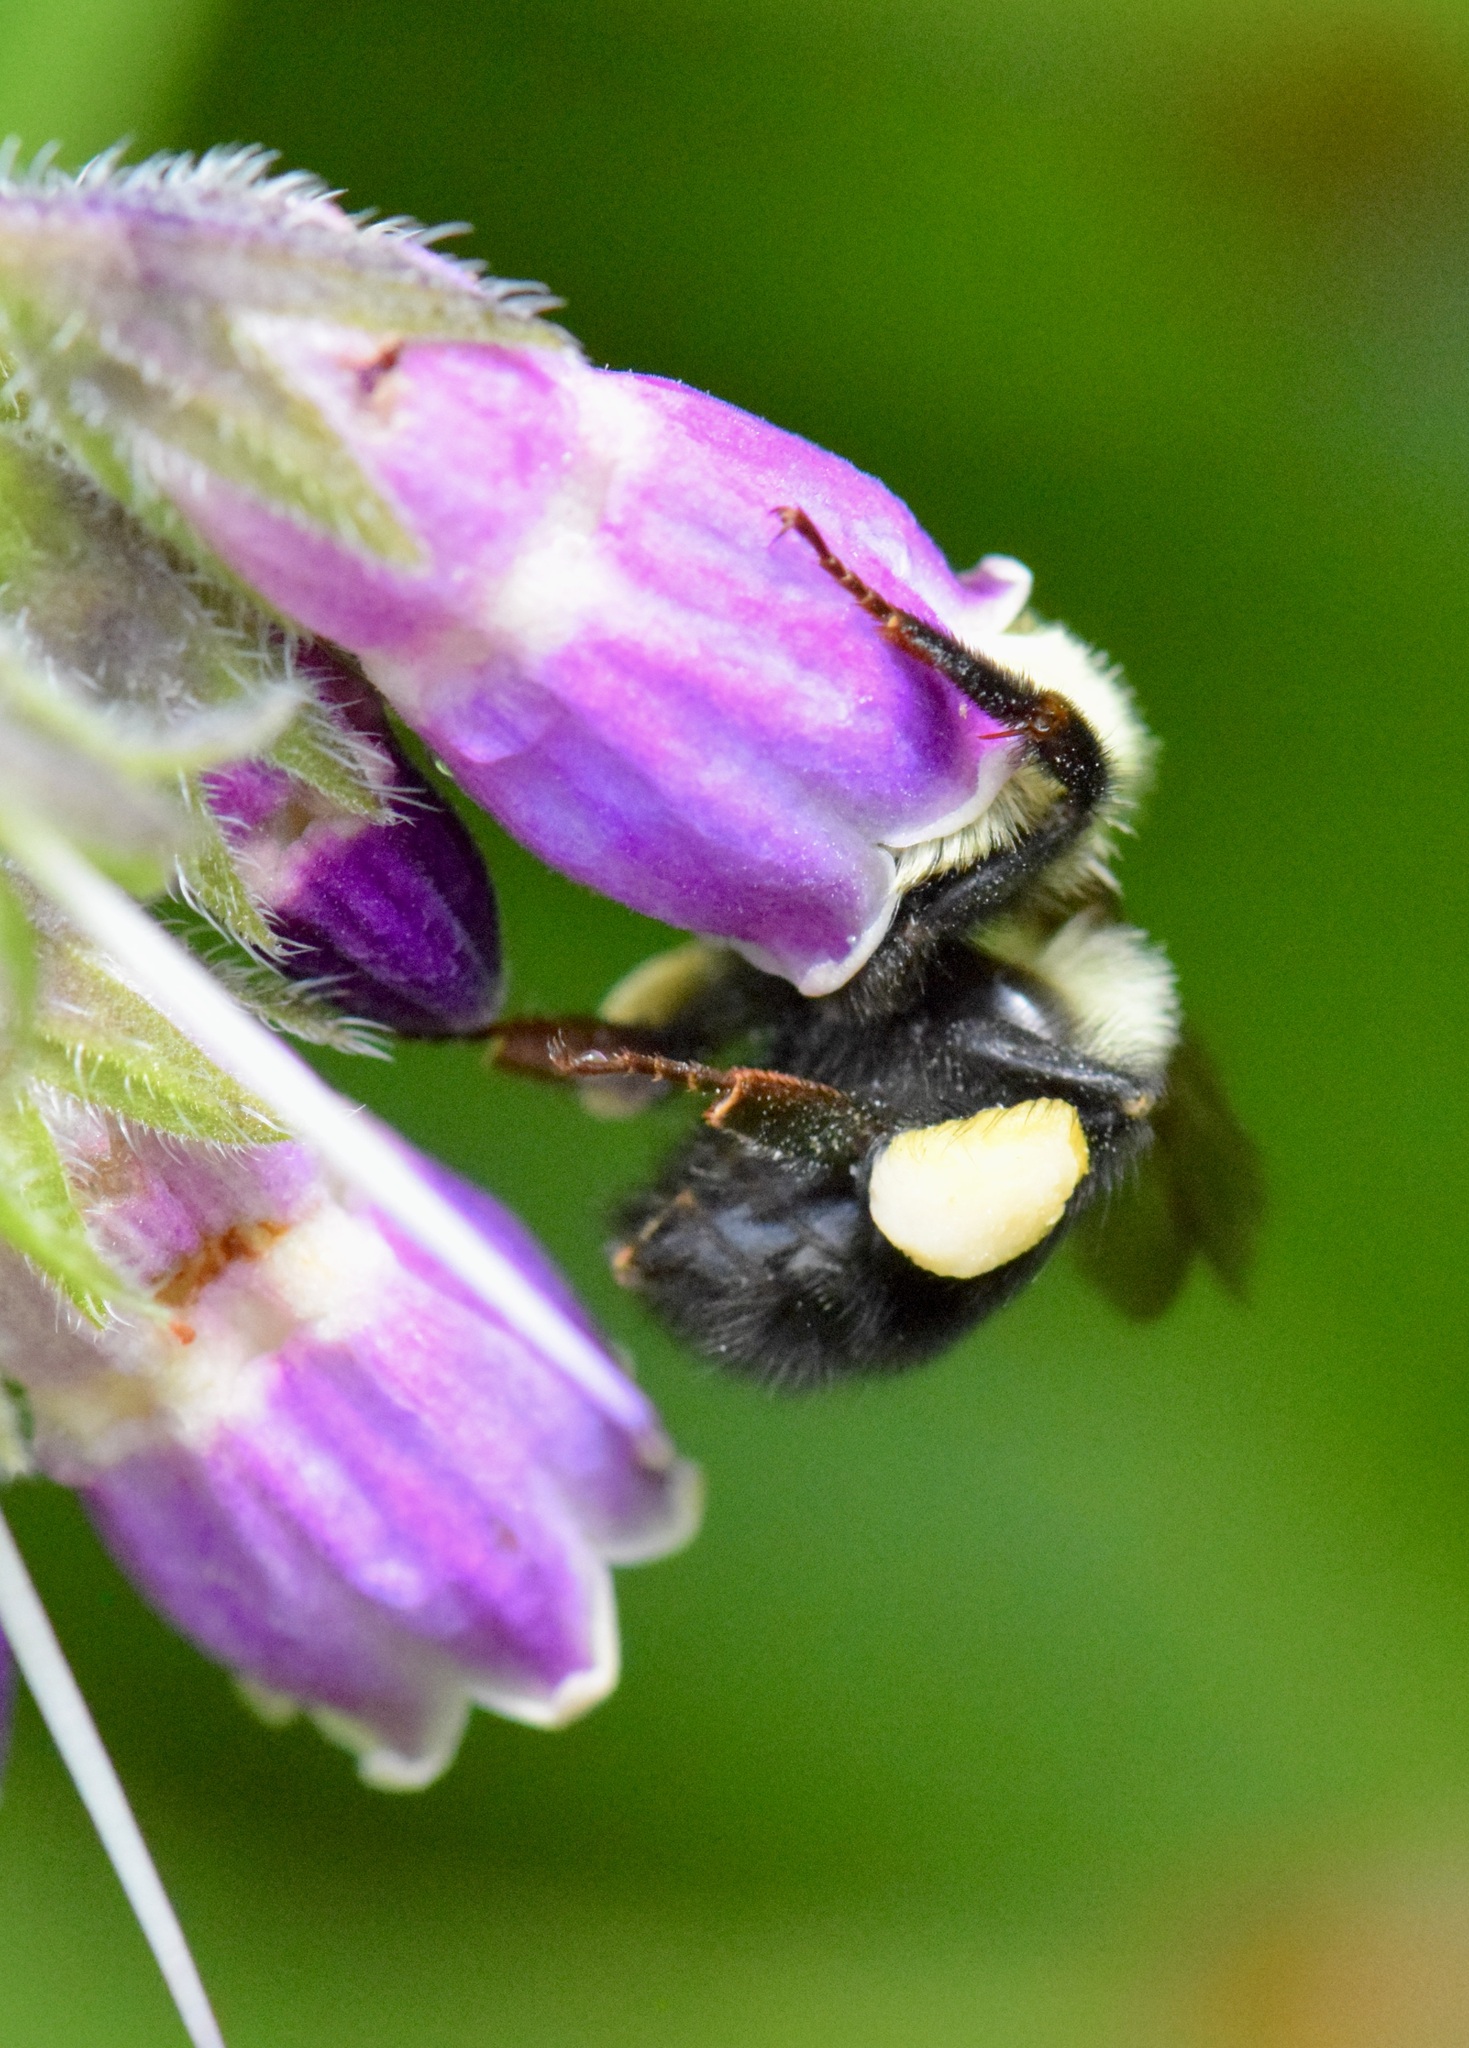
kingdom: Animalia
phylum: Arthropoda
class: Insecta
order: Hymenoptera
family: Apidae
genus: Pyrobombus
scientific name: Pyrobombus
